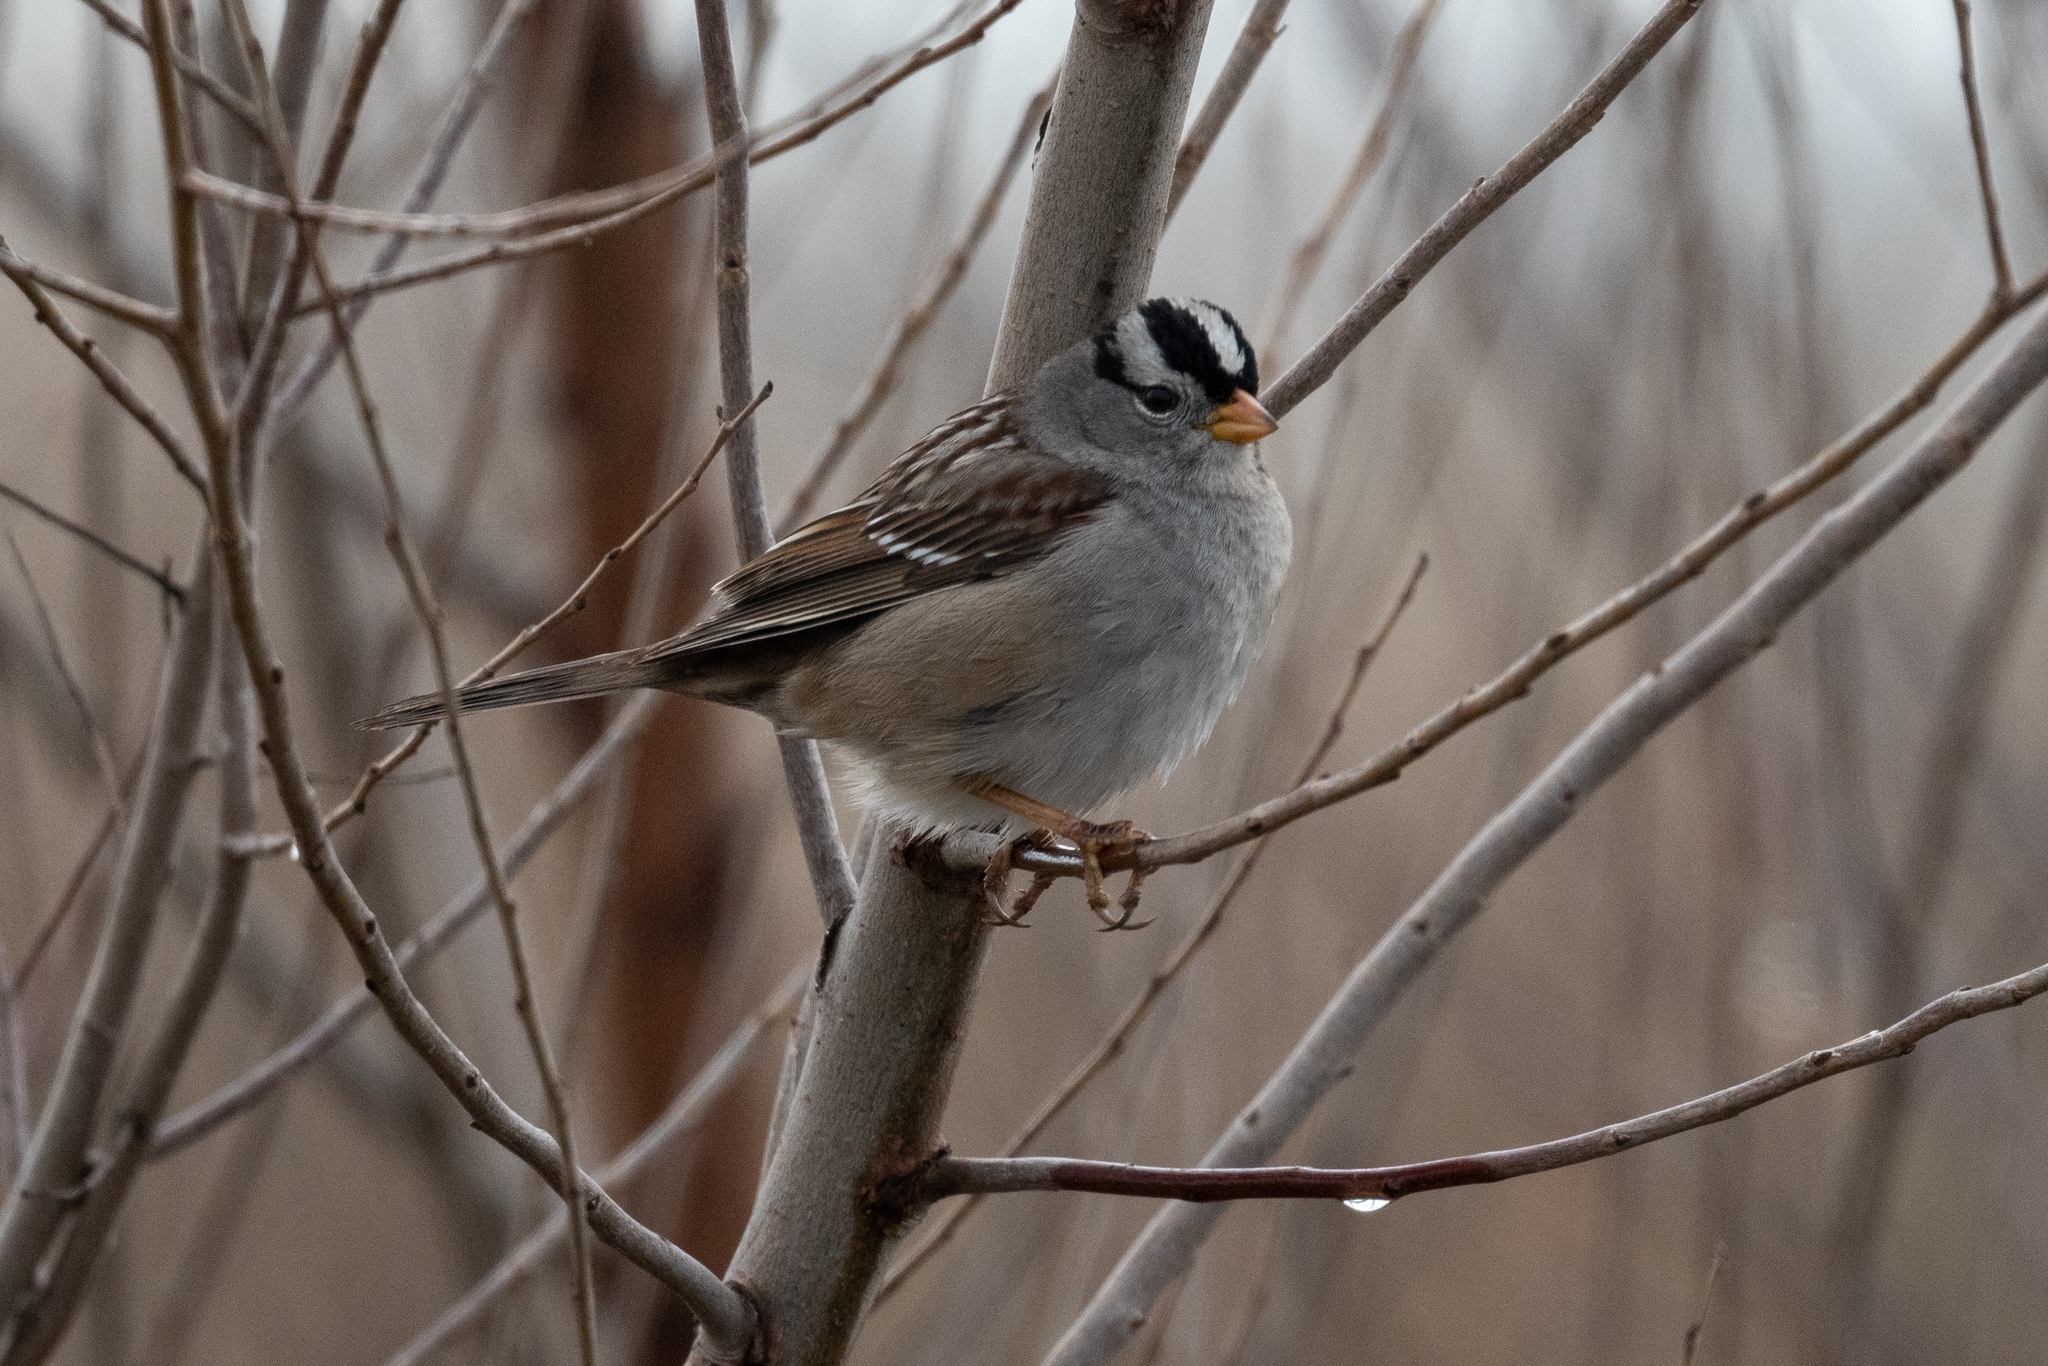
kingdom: Animalia
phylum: Chordata
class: Aves
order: Passeriformes
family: Passerellidae
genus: Zonotrichia
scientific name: Zonotrichia leucophrys
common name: White-crowned sparrow
